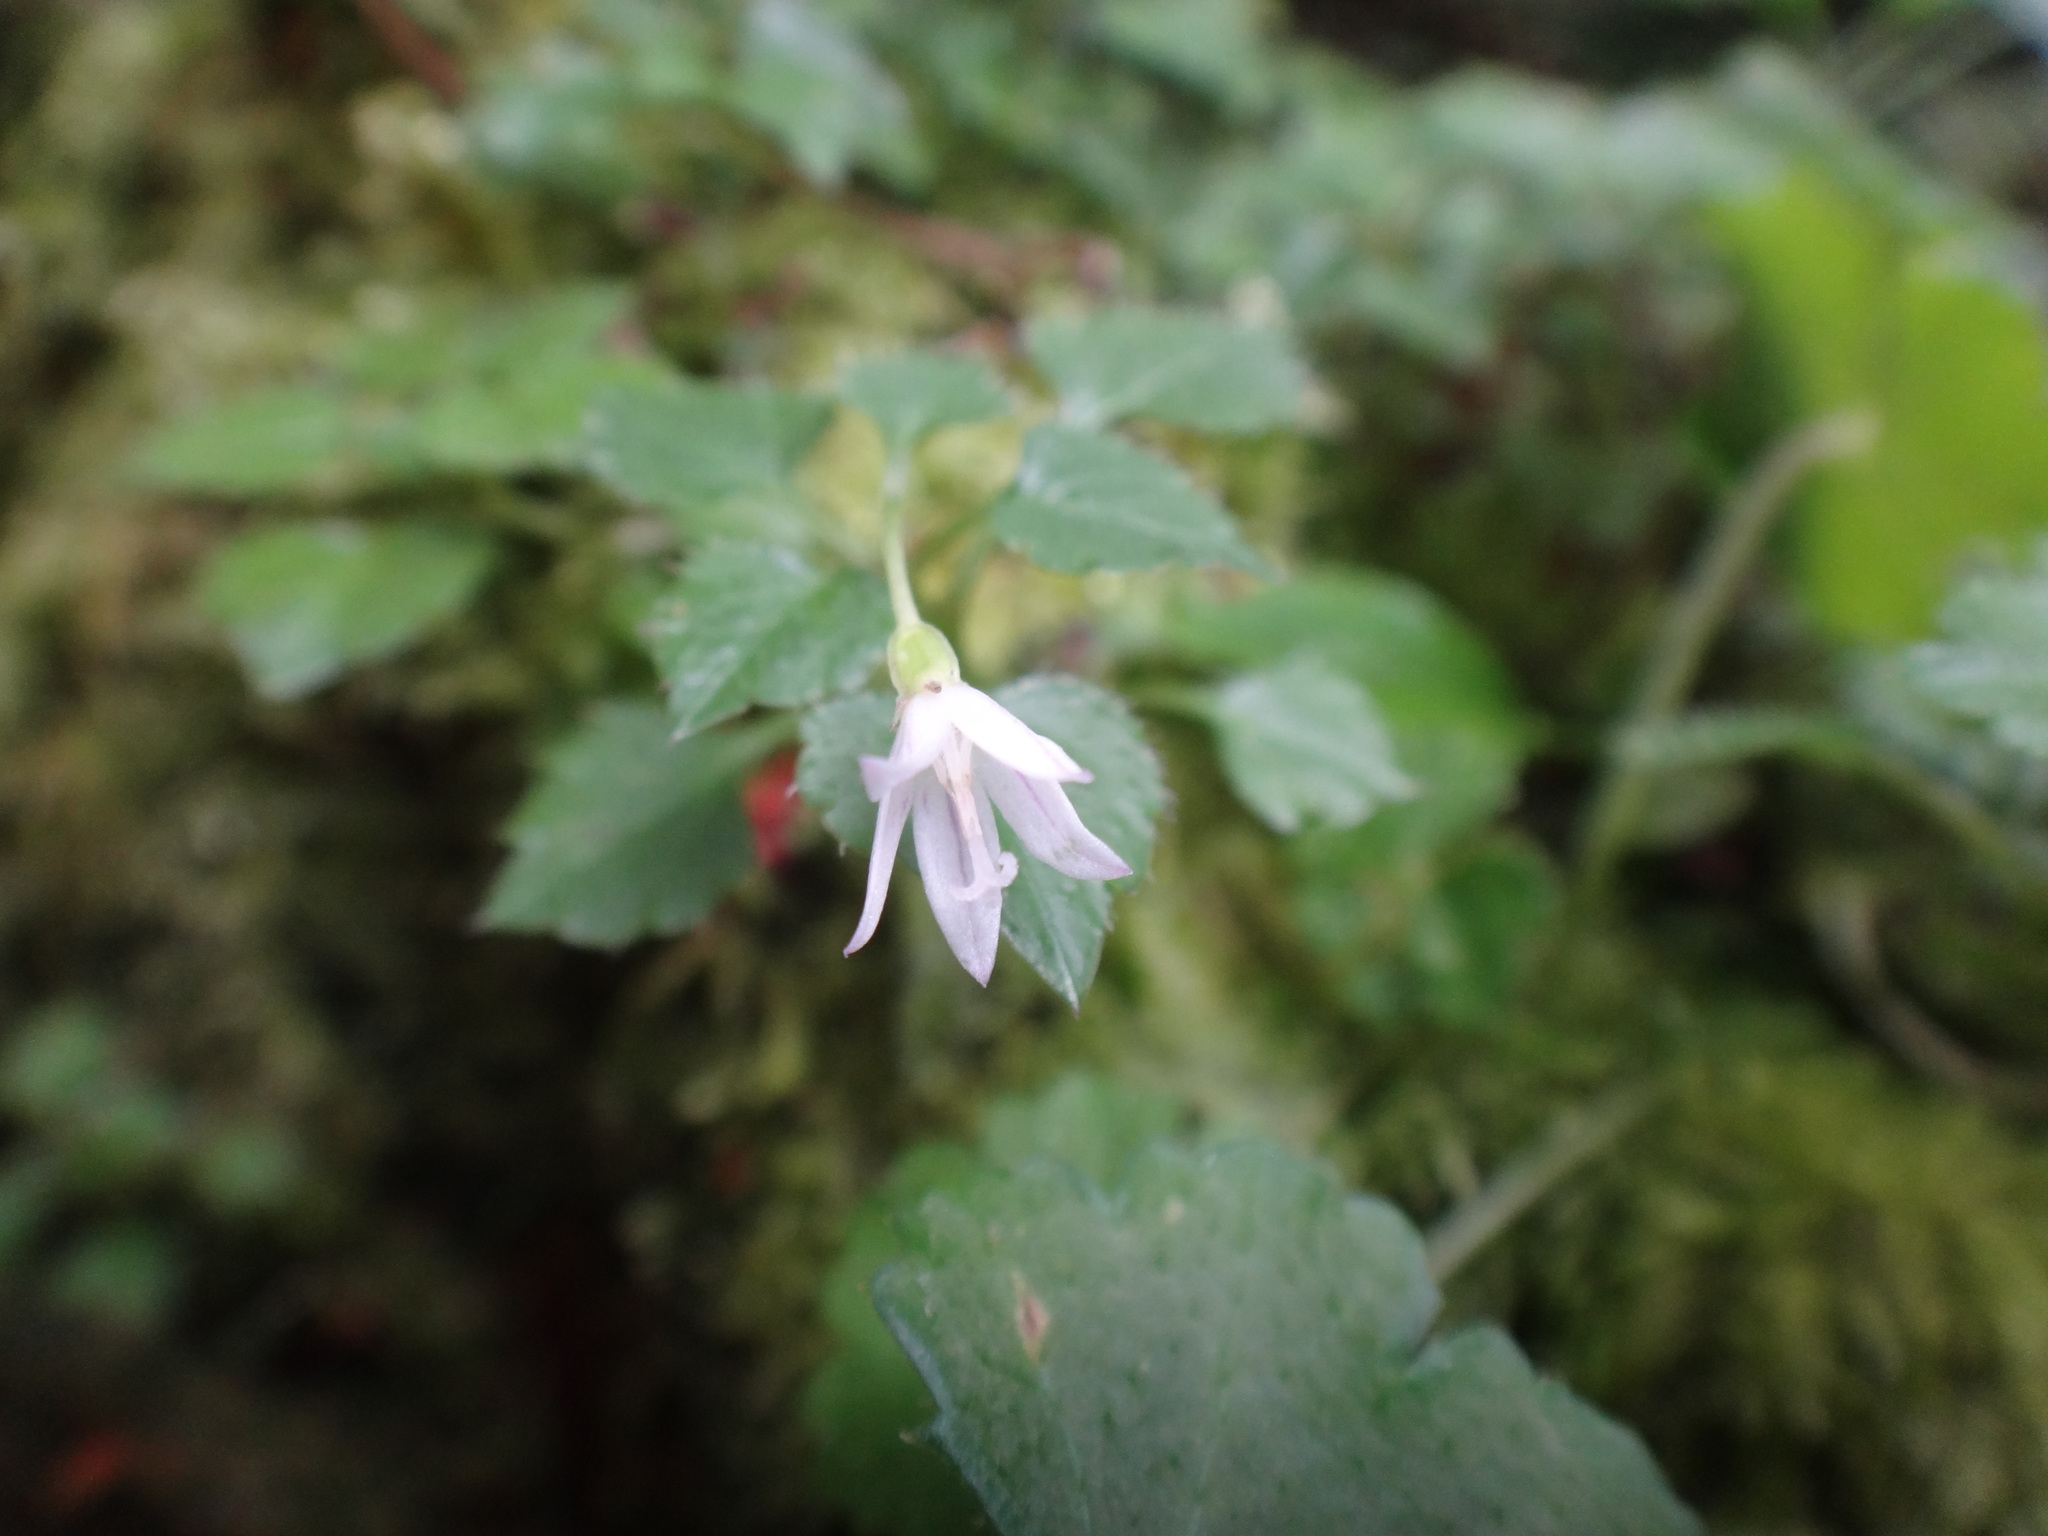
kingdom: Plantae
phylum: Tracheophyta
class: Magnoliopsida
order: Asterales
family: Campanulaceae
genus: Peracarpa
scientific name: Peracarpa carnosa
